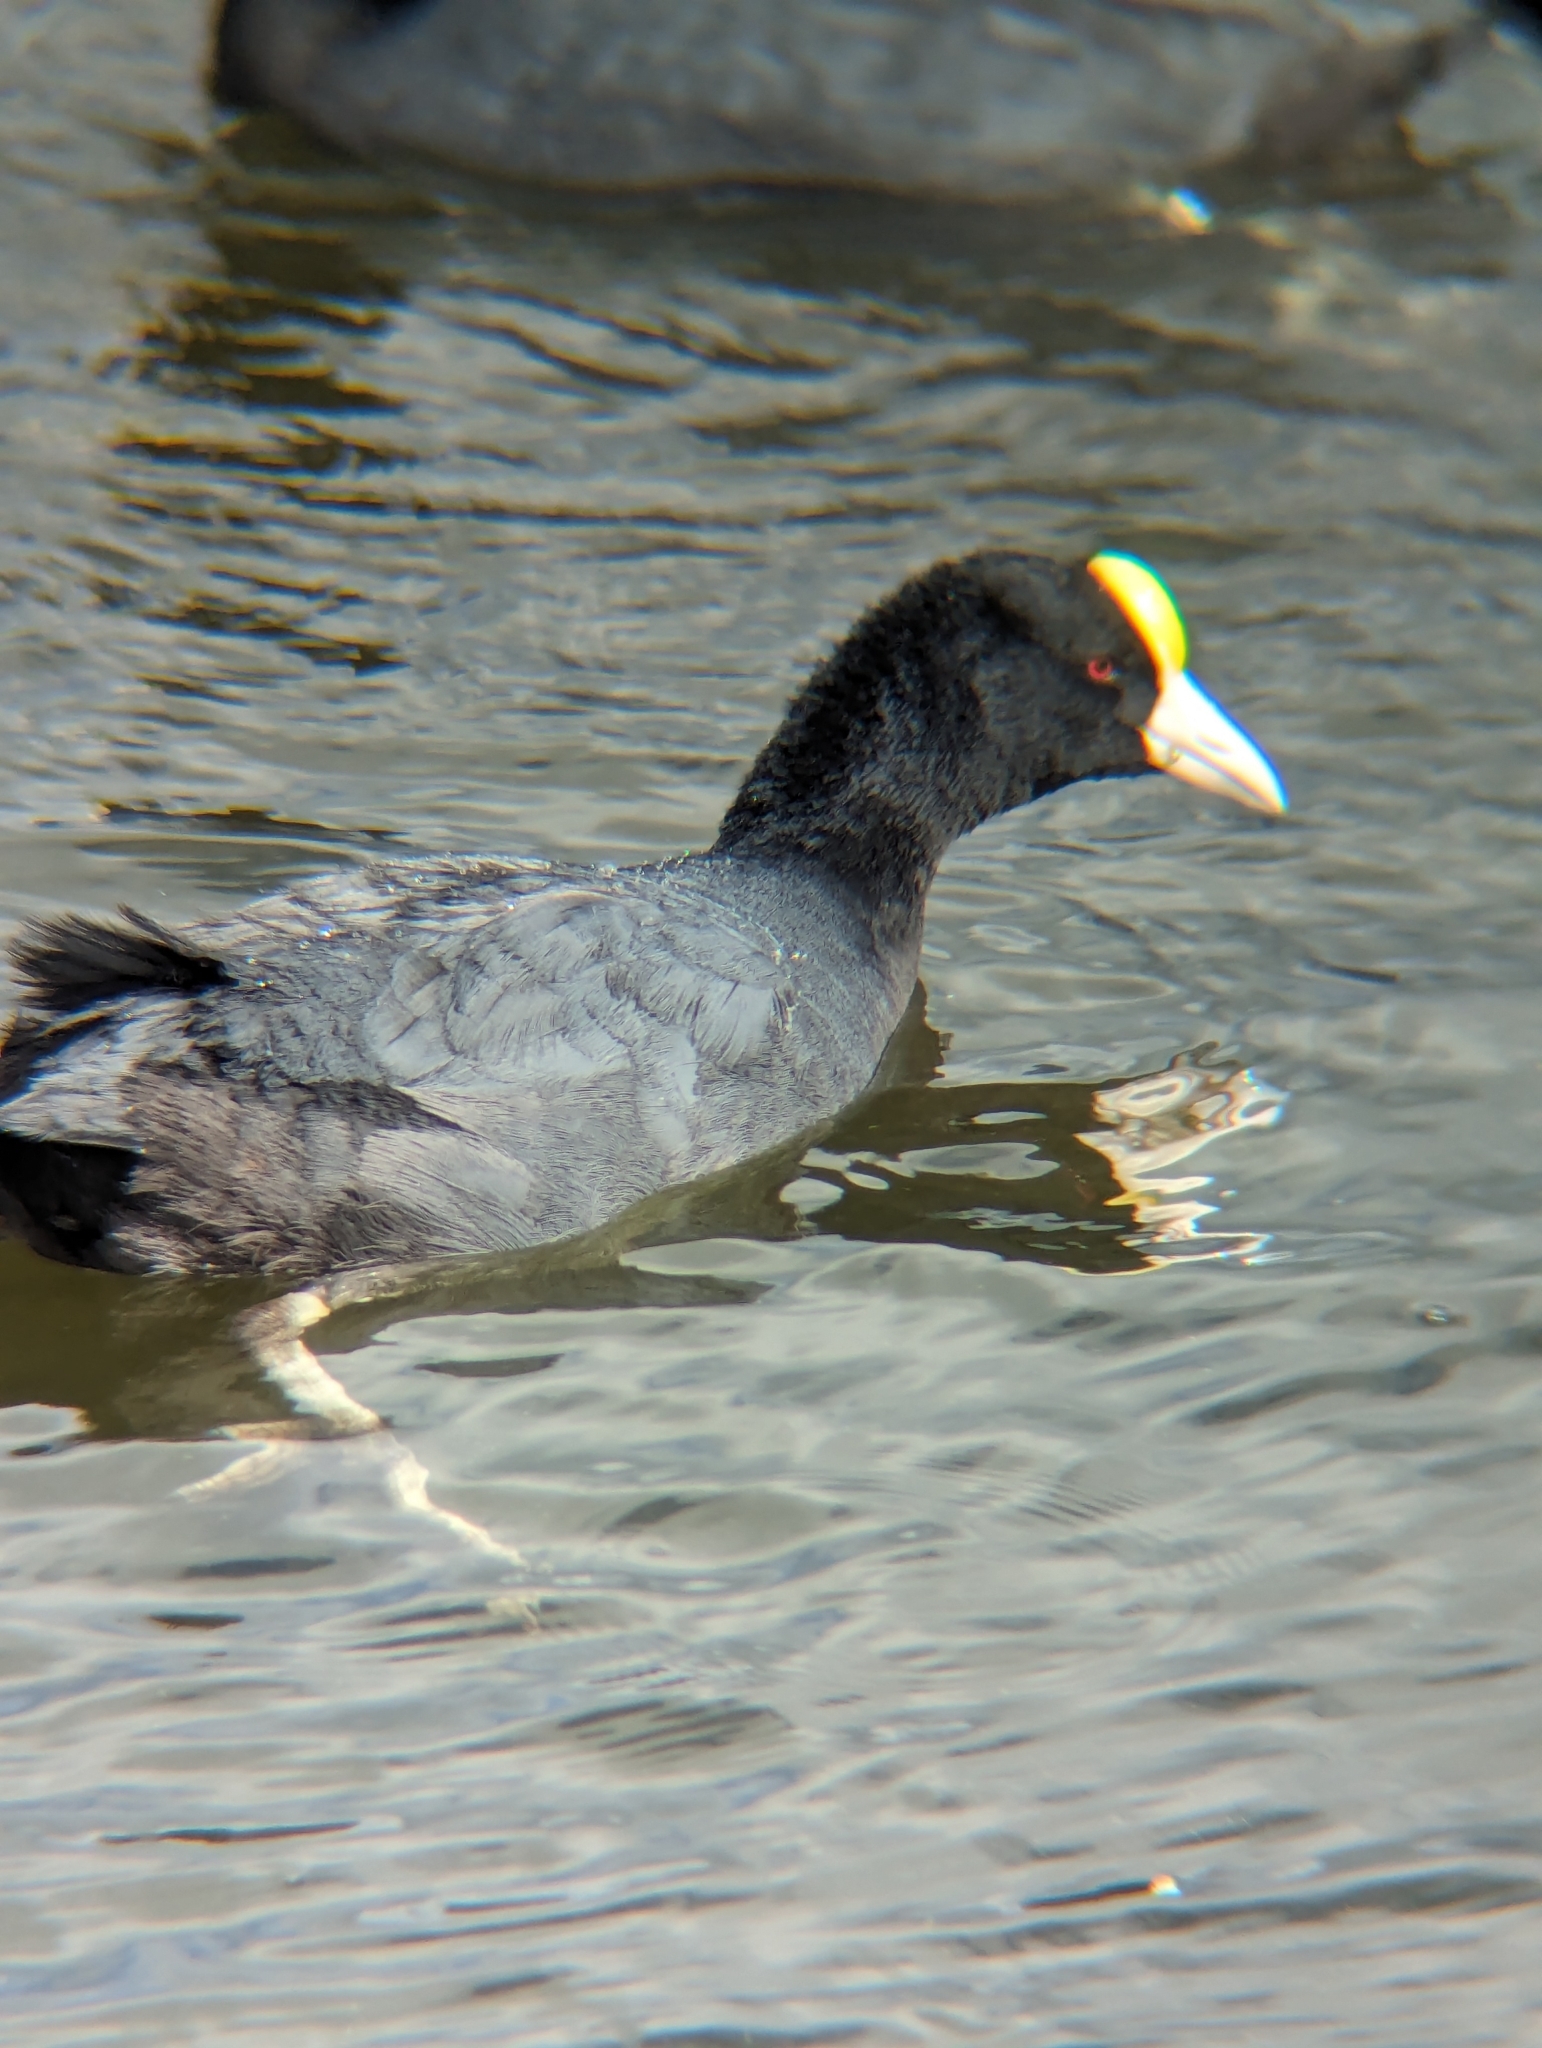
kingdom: Animalia
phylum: Chordata
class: Aves
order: Gruiformes
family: Rallidae
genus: Fulica
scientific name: Fulica ardesiaca
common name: Andean coot
